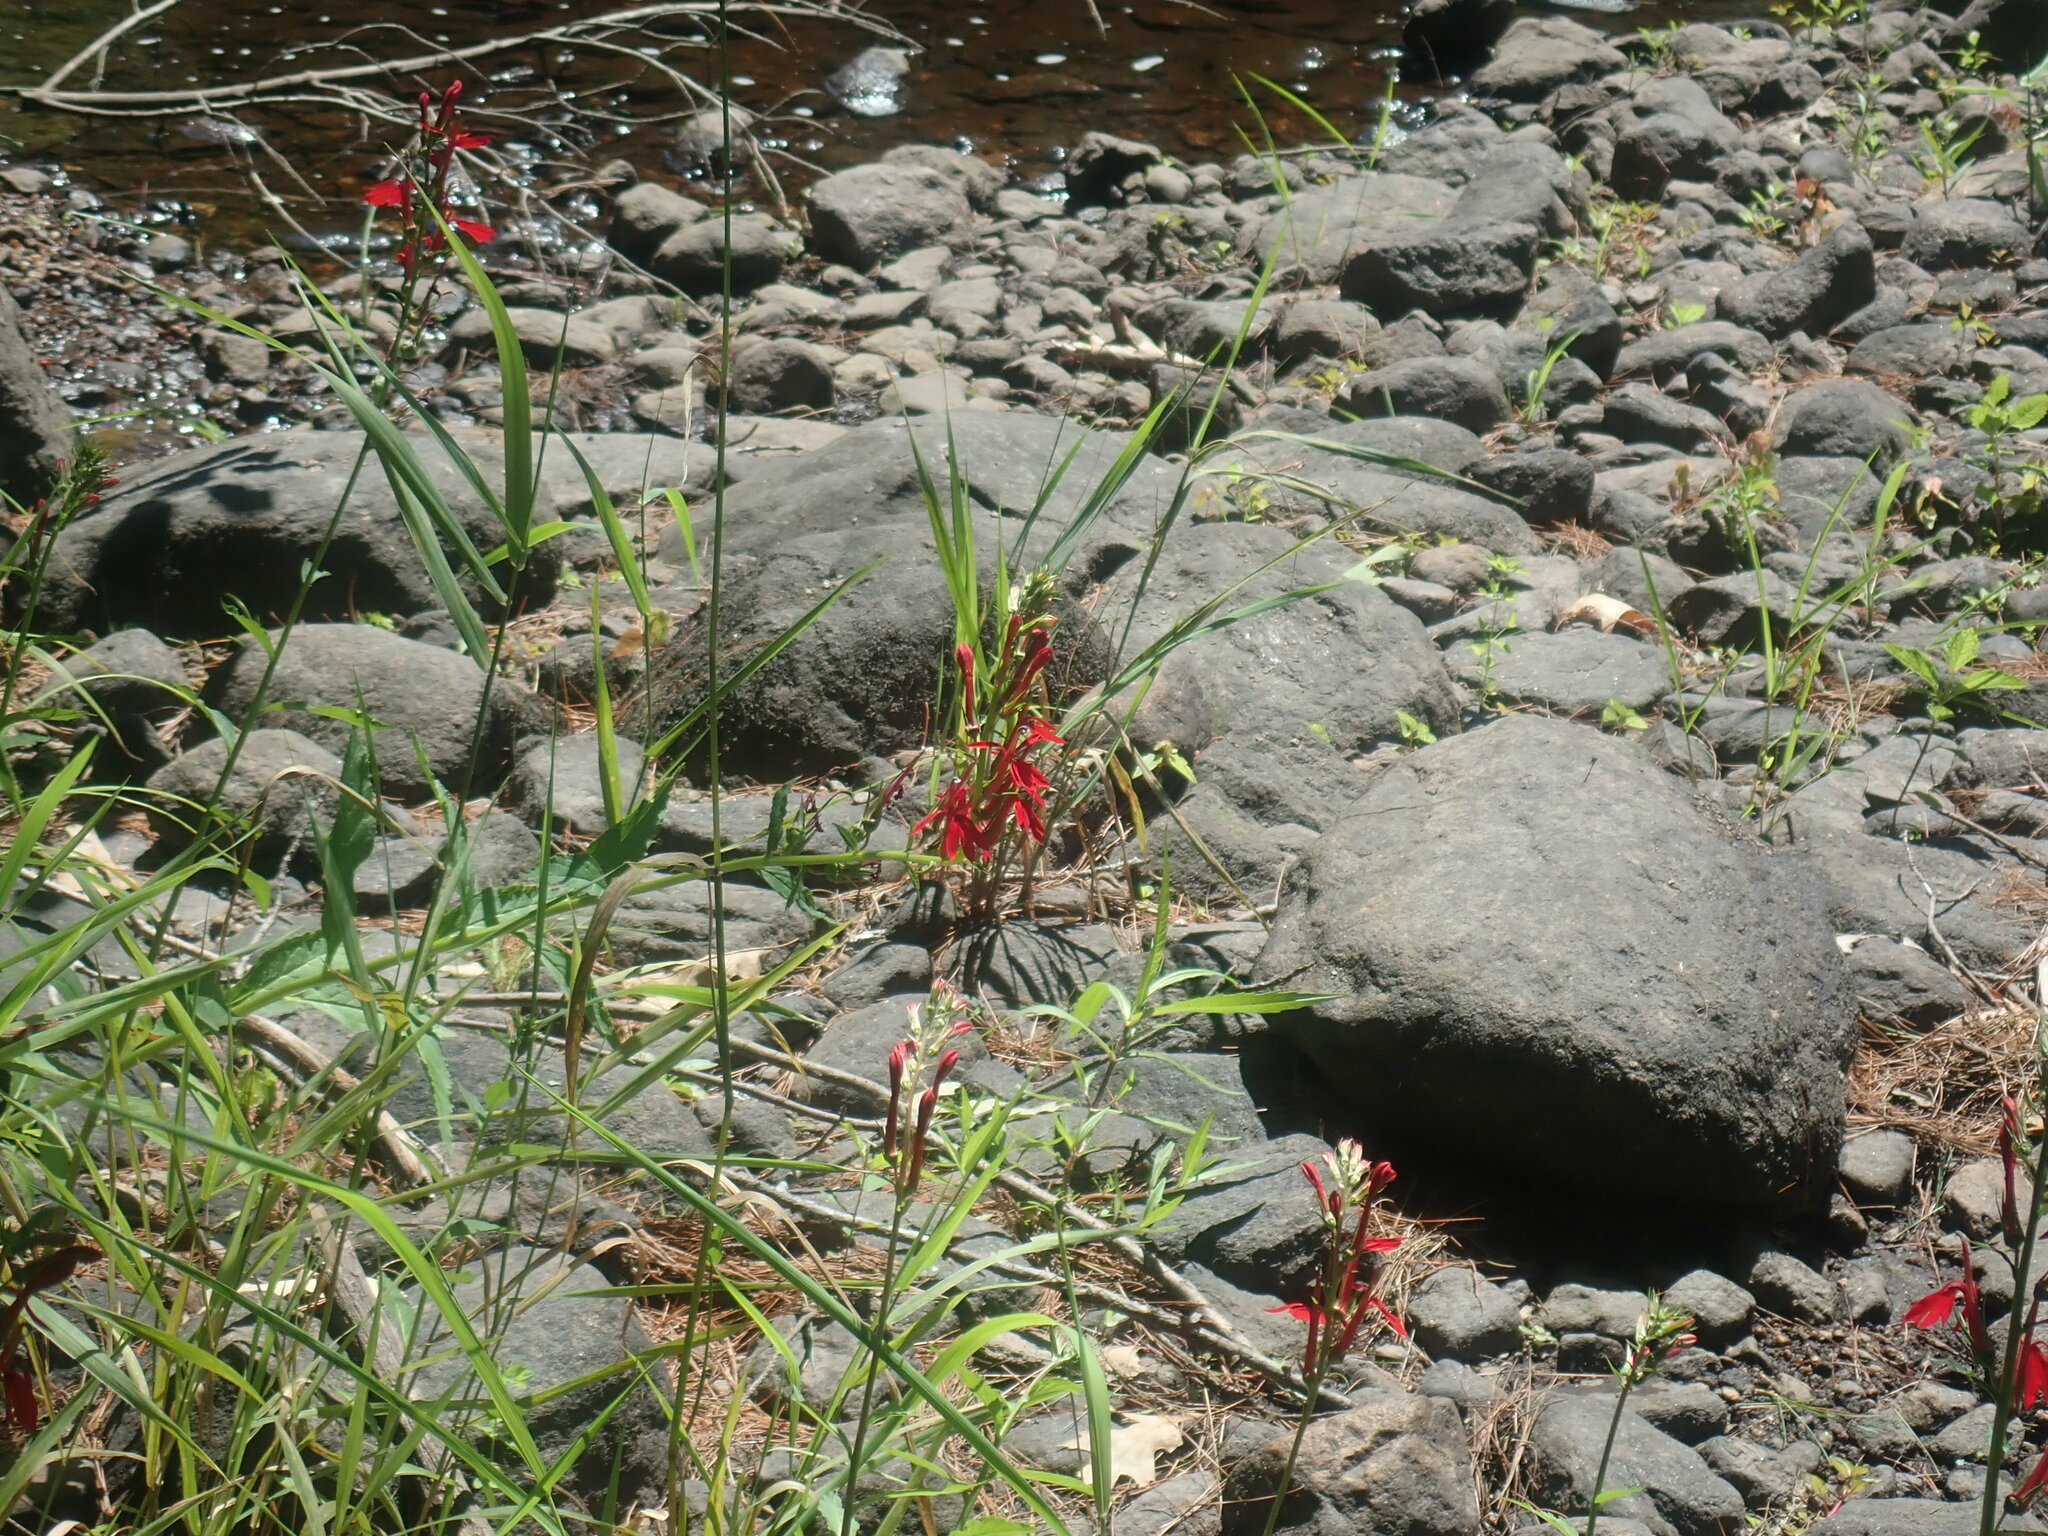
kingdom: Plantae
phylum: Tracheophyta
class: Magnoliopsida
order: Asterales
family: Campanulaceae
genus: Lobelia
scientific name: Lobelia cardinalis
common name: Cardinal flower
